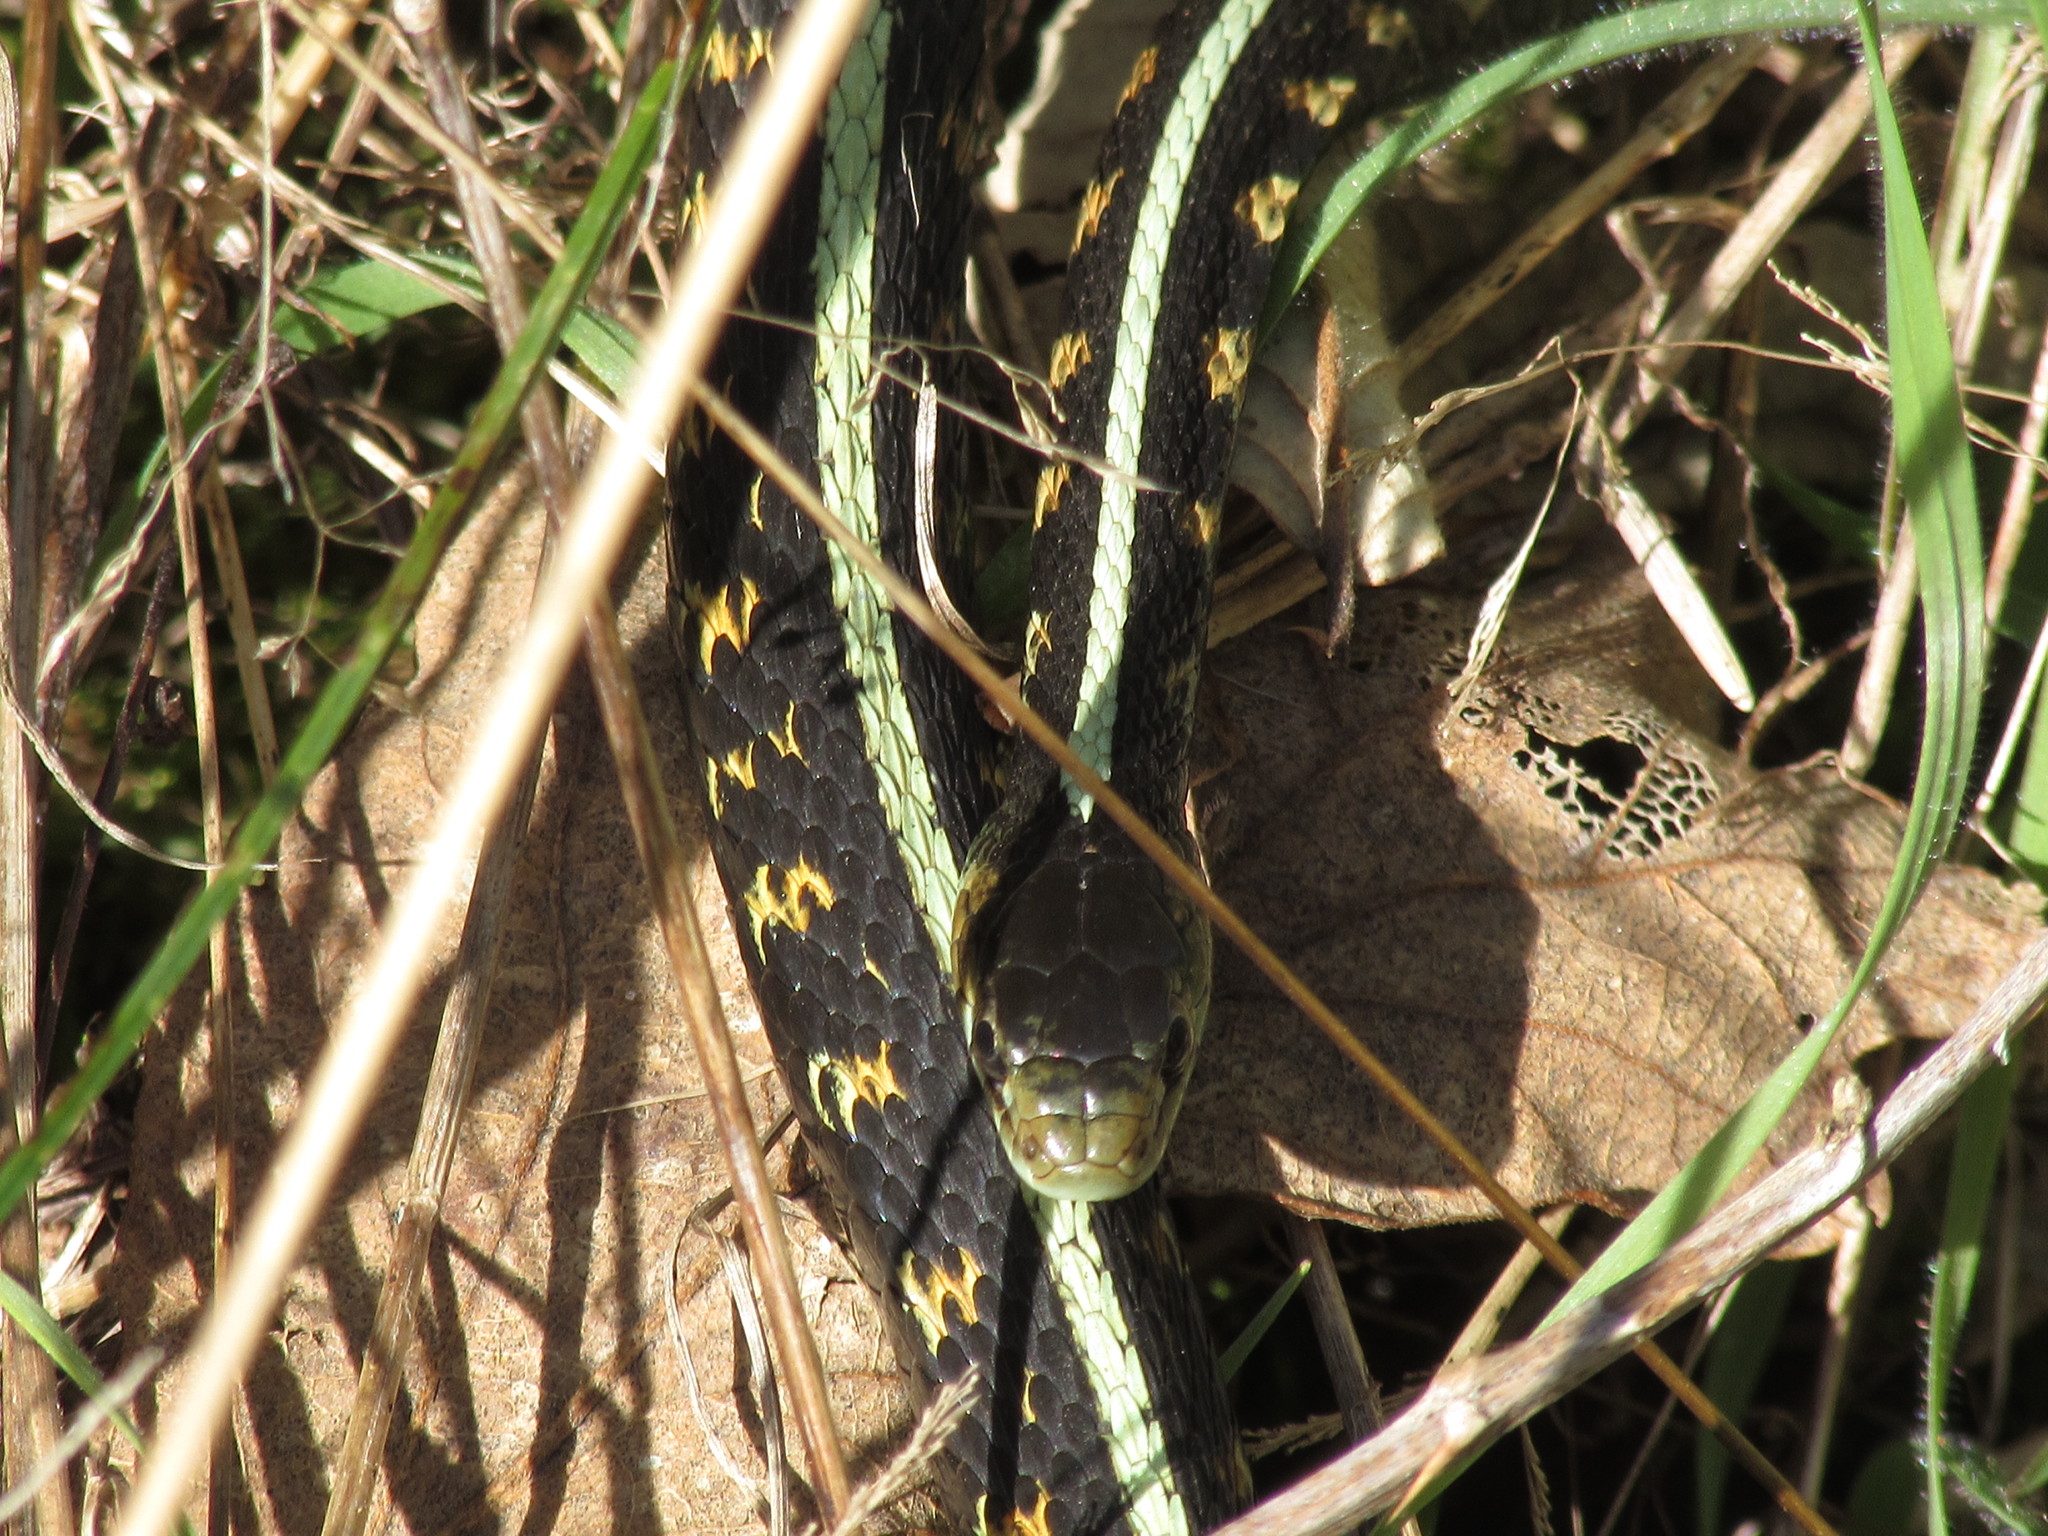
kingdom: Animalia
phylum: Chordata
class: Squamata
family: Colubridae
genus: Thamnophis
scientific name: Thamnophis sirtalis
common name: Common garter snake
